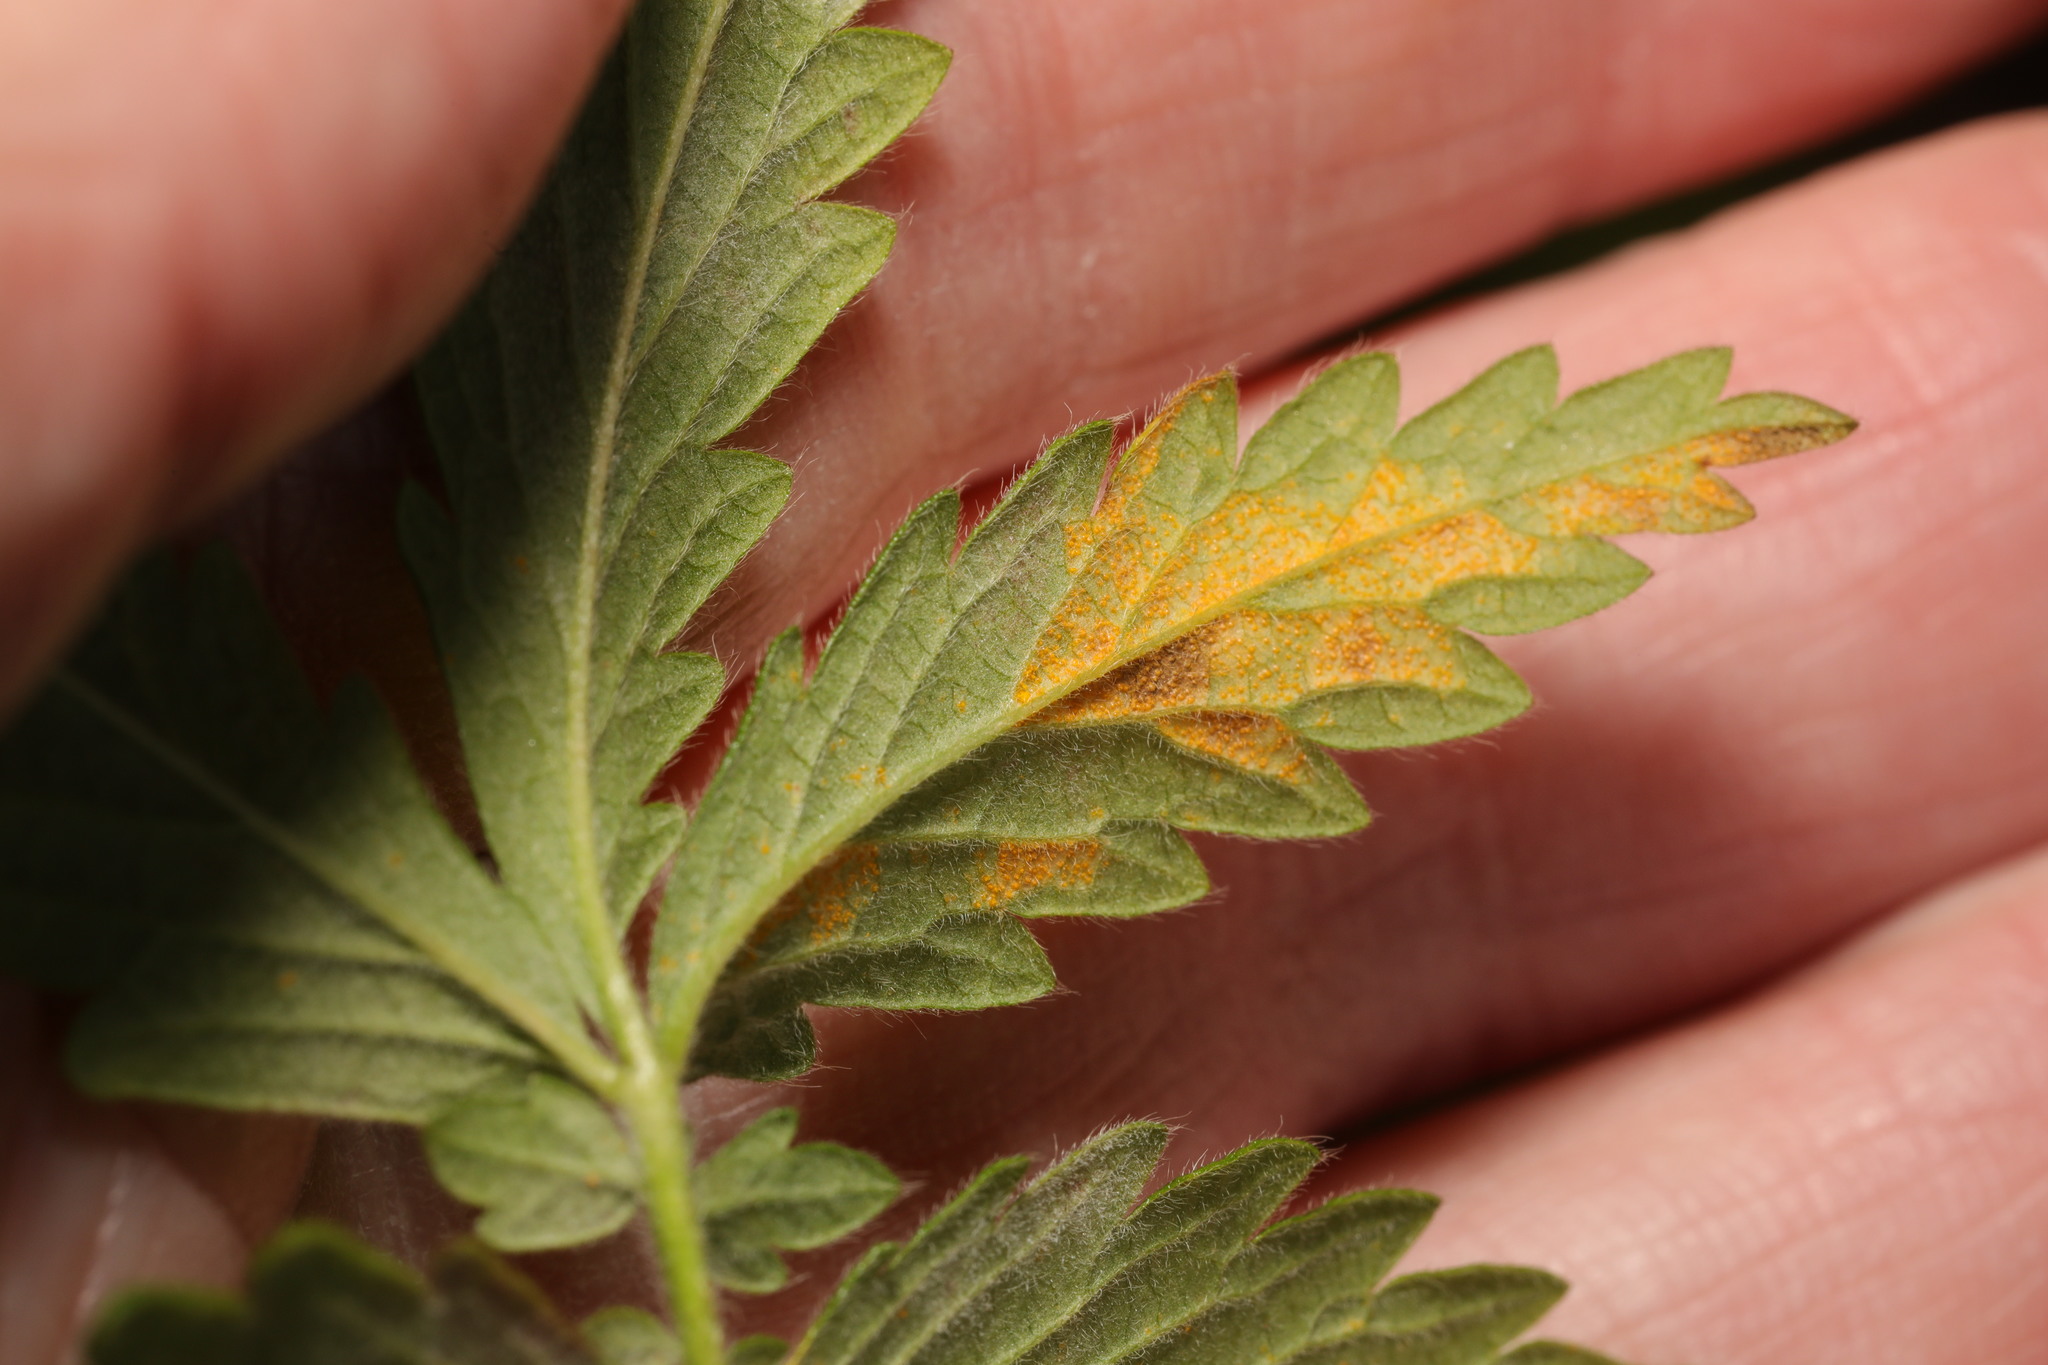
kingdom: Fungi
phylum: Basidiomycota
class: Pucciniomycetes
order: Pucciniales
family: Cronartiaceae
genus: Quasipucciniastrum
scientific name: Quasipucciniastrum ochraceum
